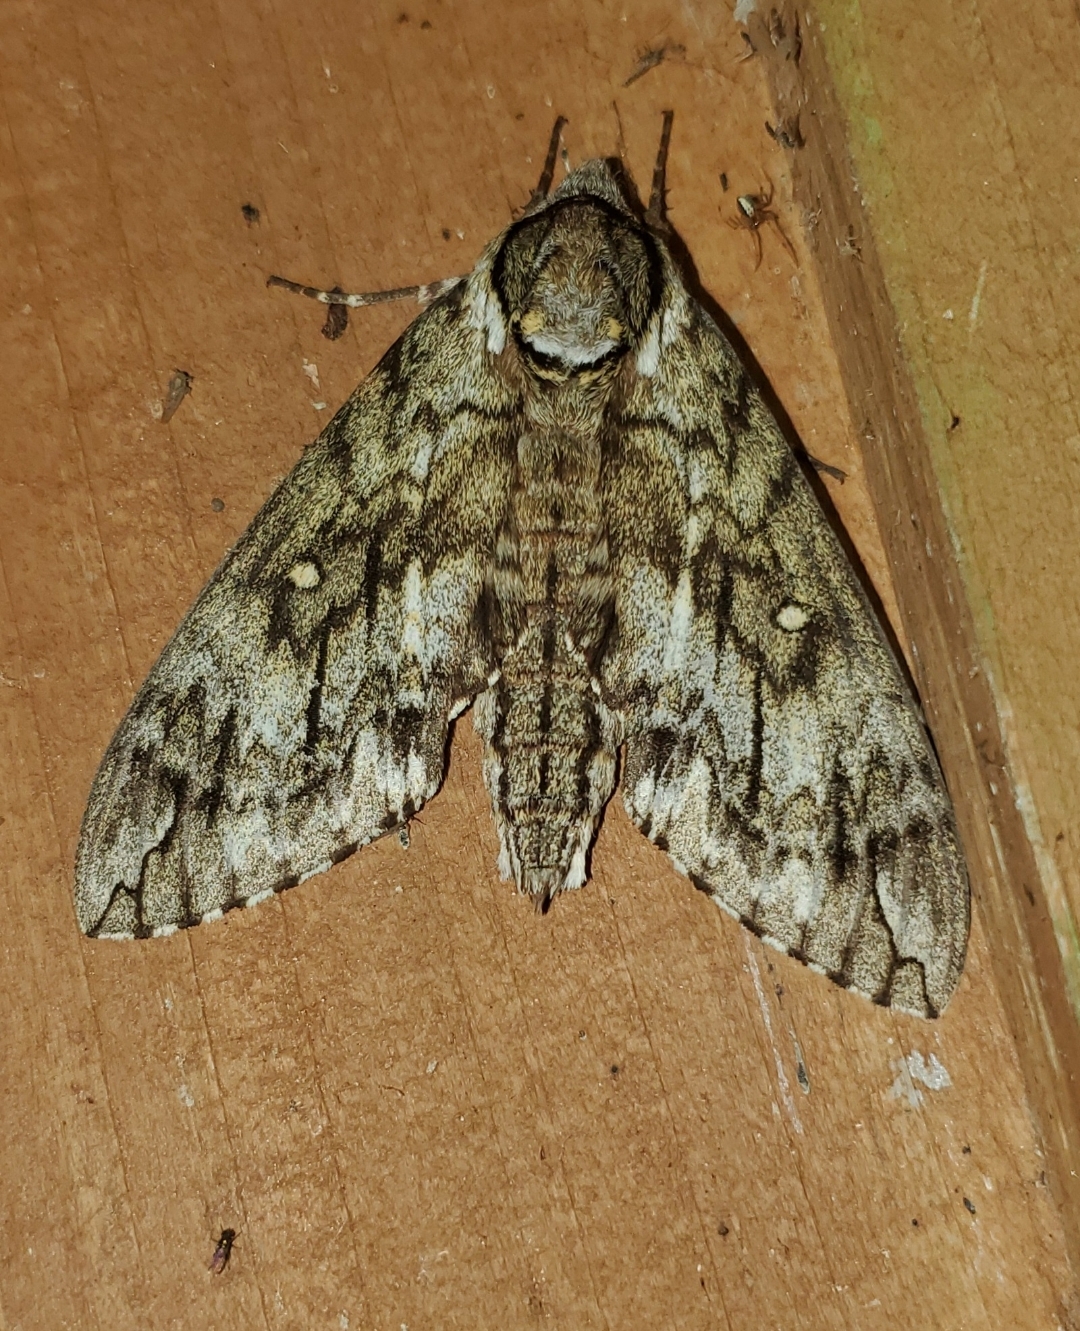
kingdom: Animalia
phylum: Arthropoda
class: Insecta
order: Lepidoptera
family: Sphingidae
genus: Ceratomia
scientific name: Ceratomia undulosa
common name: Waved sphinx
